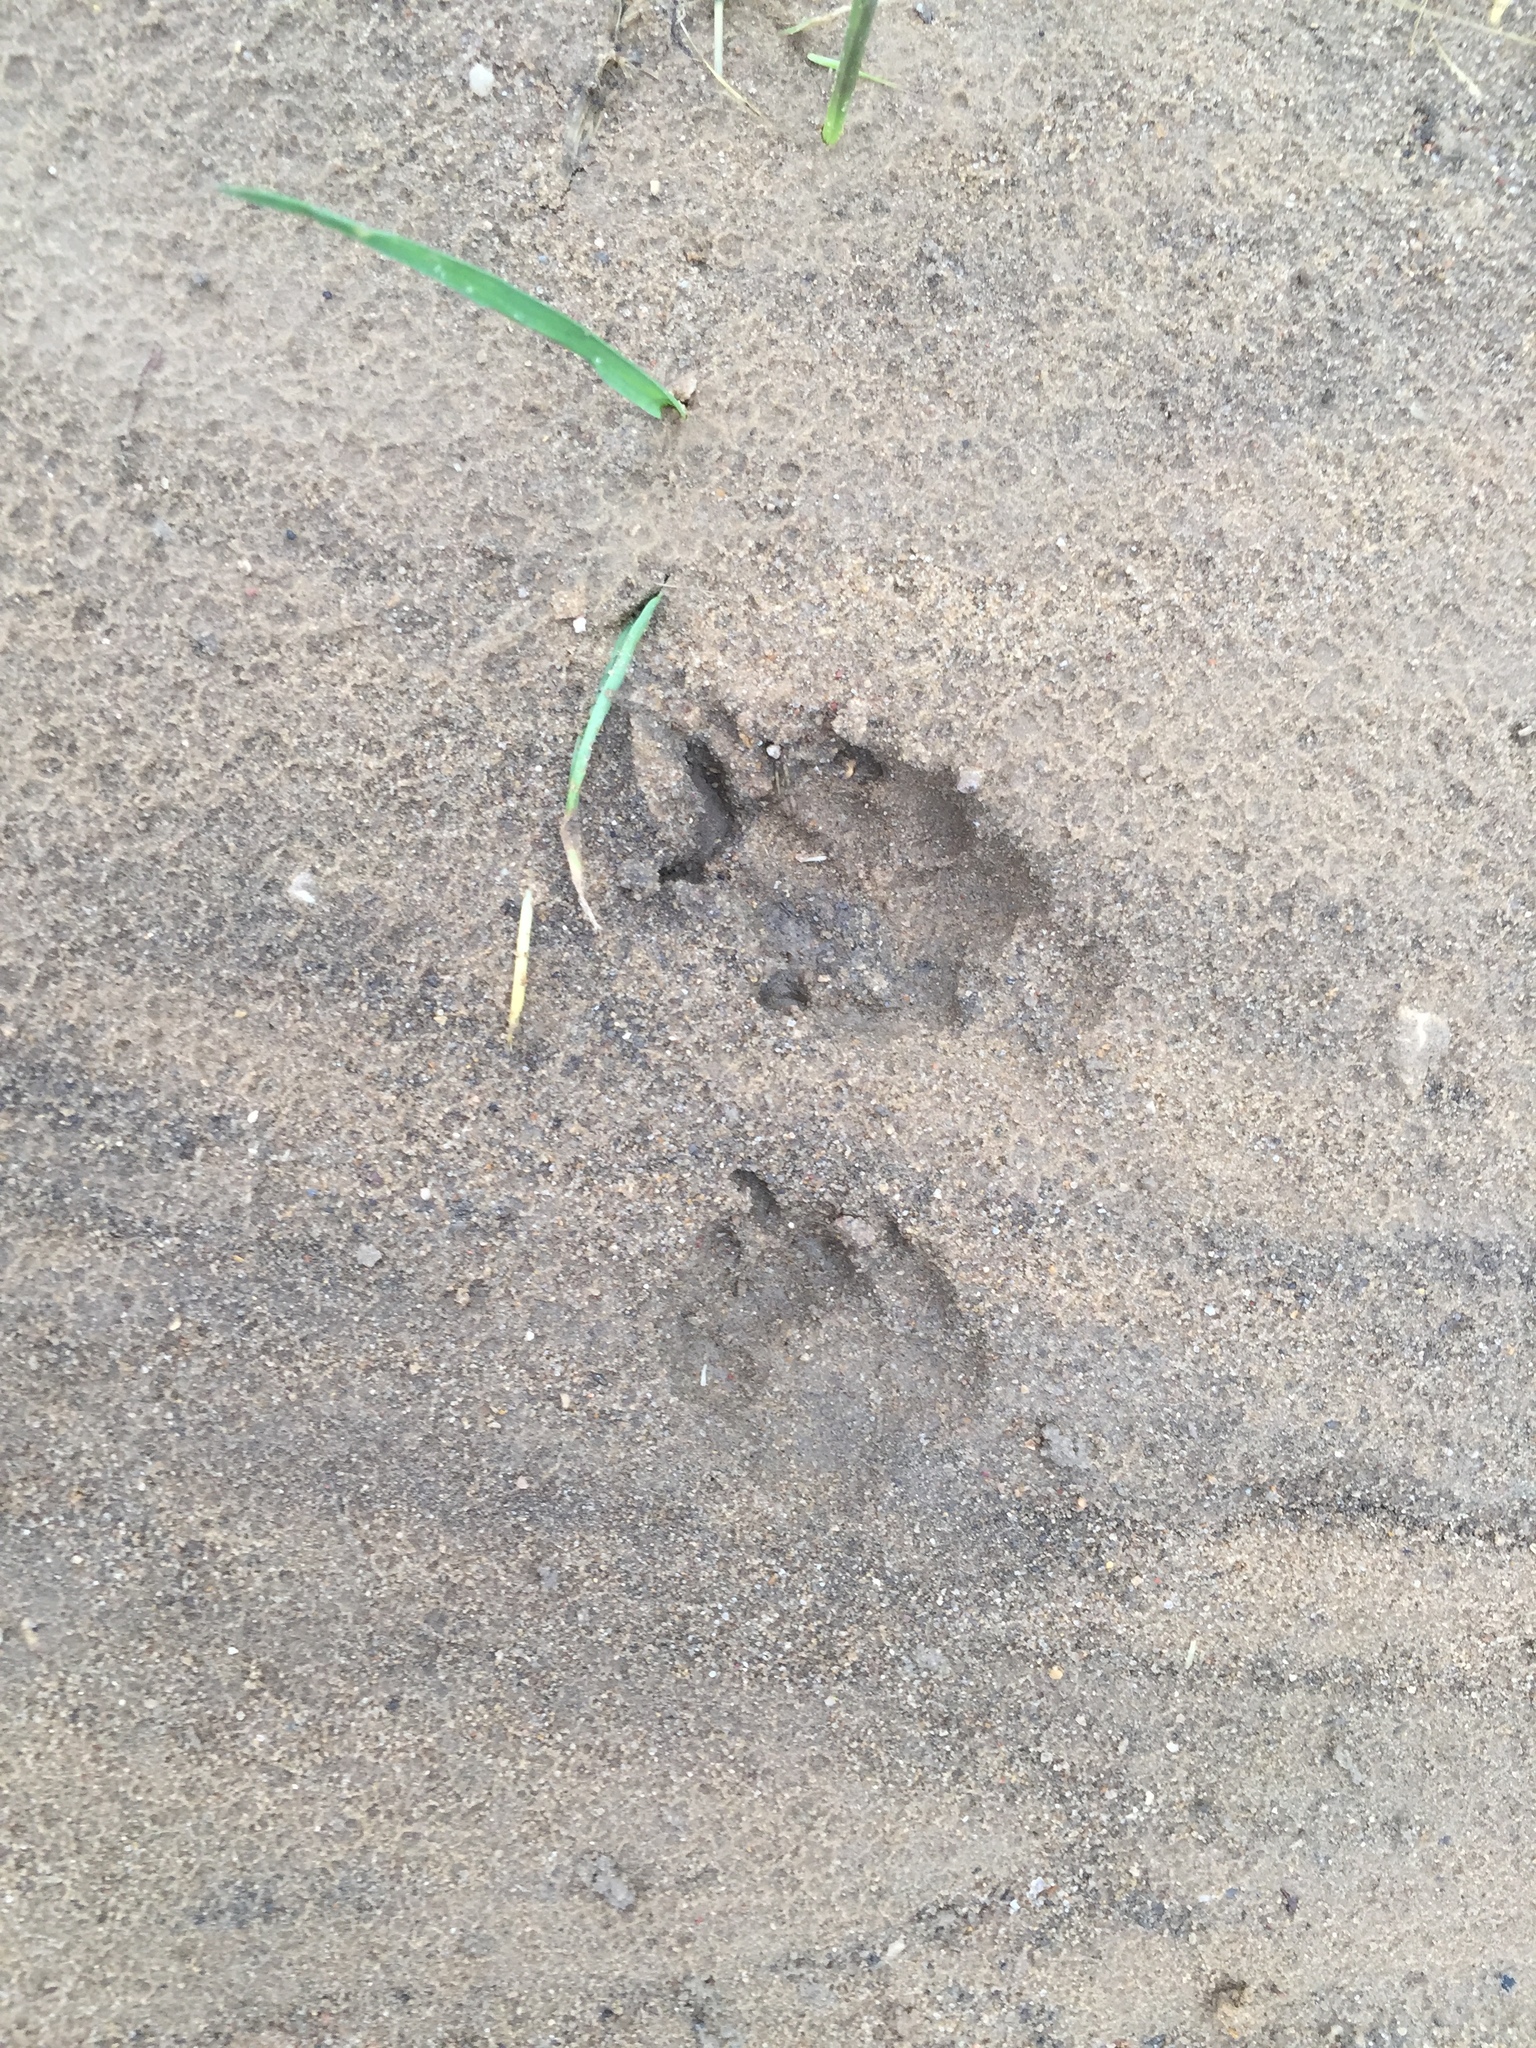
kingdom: Animalia
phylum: Chordata
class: Mammalia
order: Carnivora
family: Procyonidae
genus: Procyon
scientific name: Procyon lotor
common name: Raccoon
